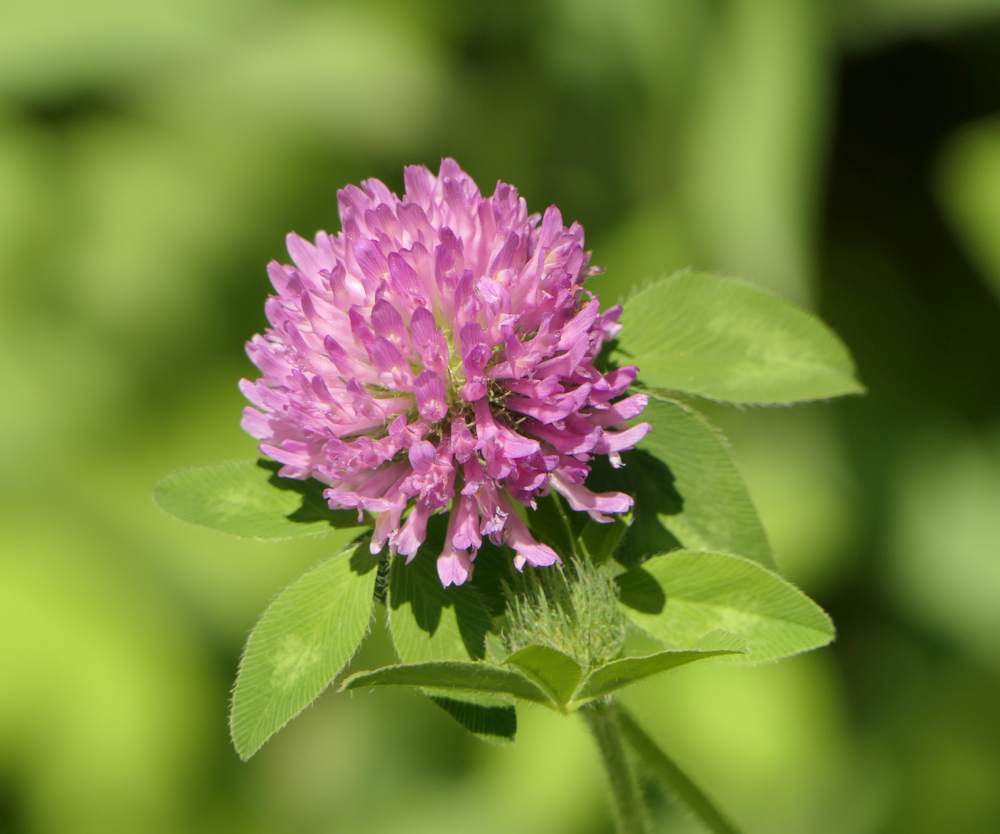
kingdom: Plantae
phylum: Tracheophyta
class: Magnoliopsida
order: Fabales
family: Fabaceae
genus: Trifolium
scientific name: Trifolium pratense
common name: Red clover
